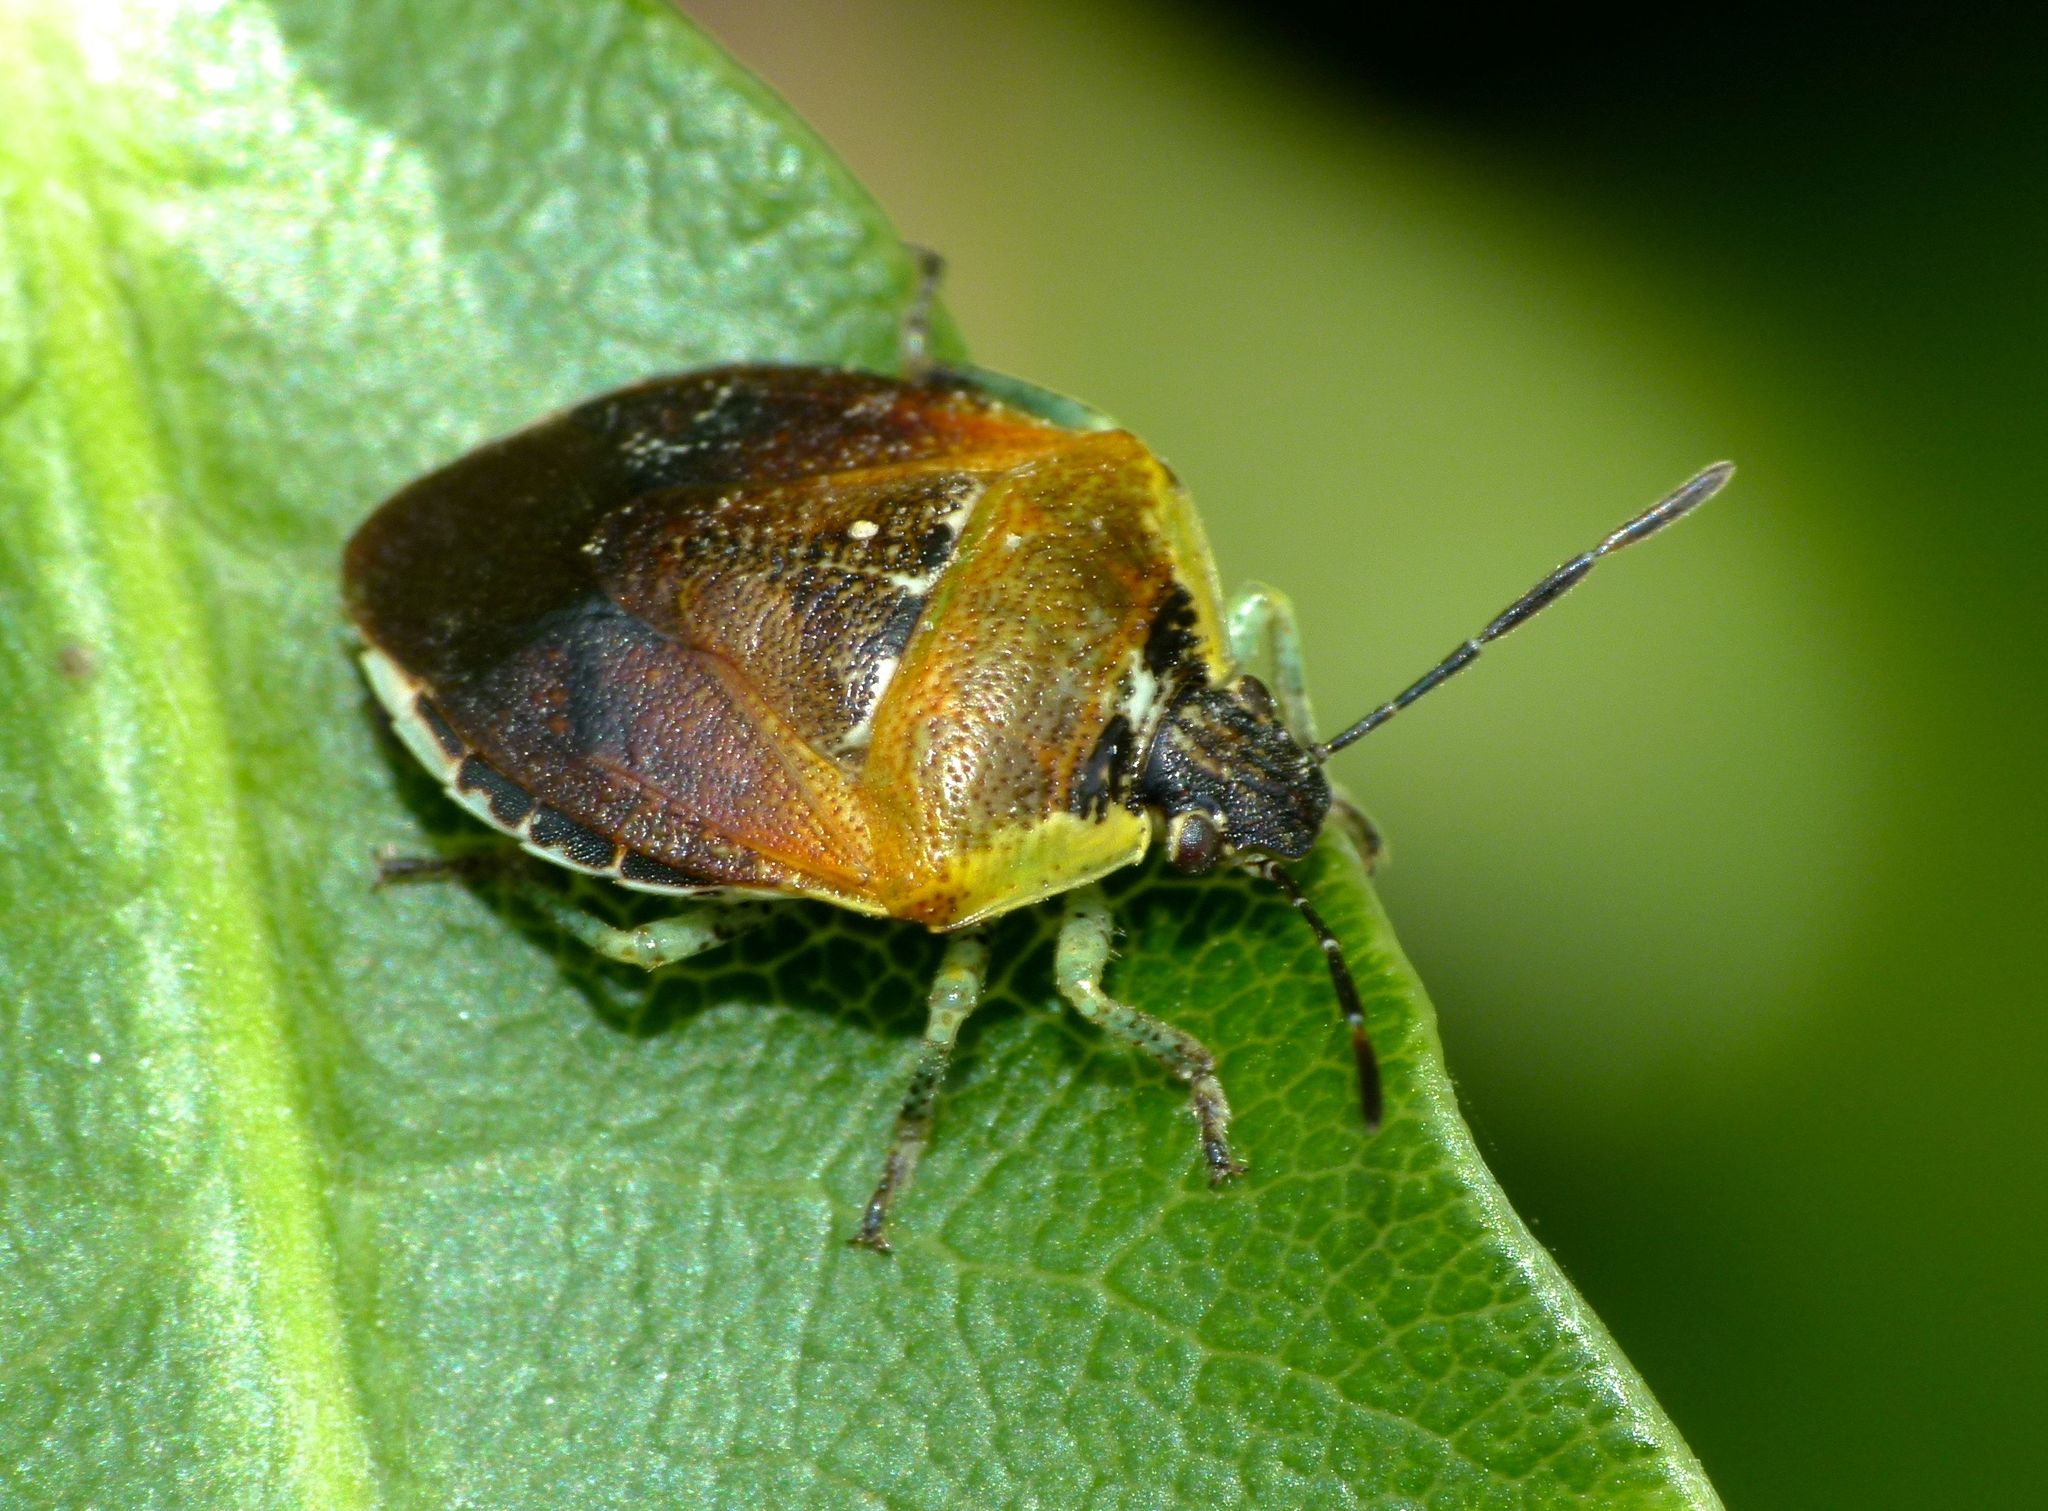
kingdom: Animalia
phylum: Arthropoda
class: Insecta
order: Hemiptera
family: Pentatomidae
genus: Monteithiella
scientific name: Monteithiella
